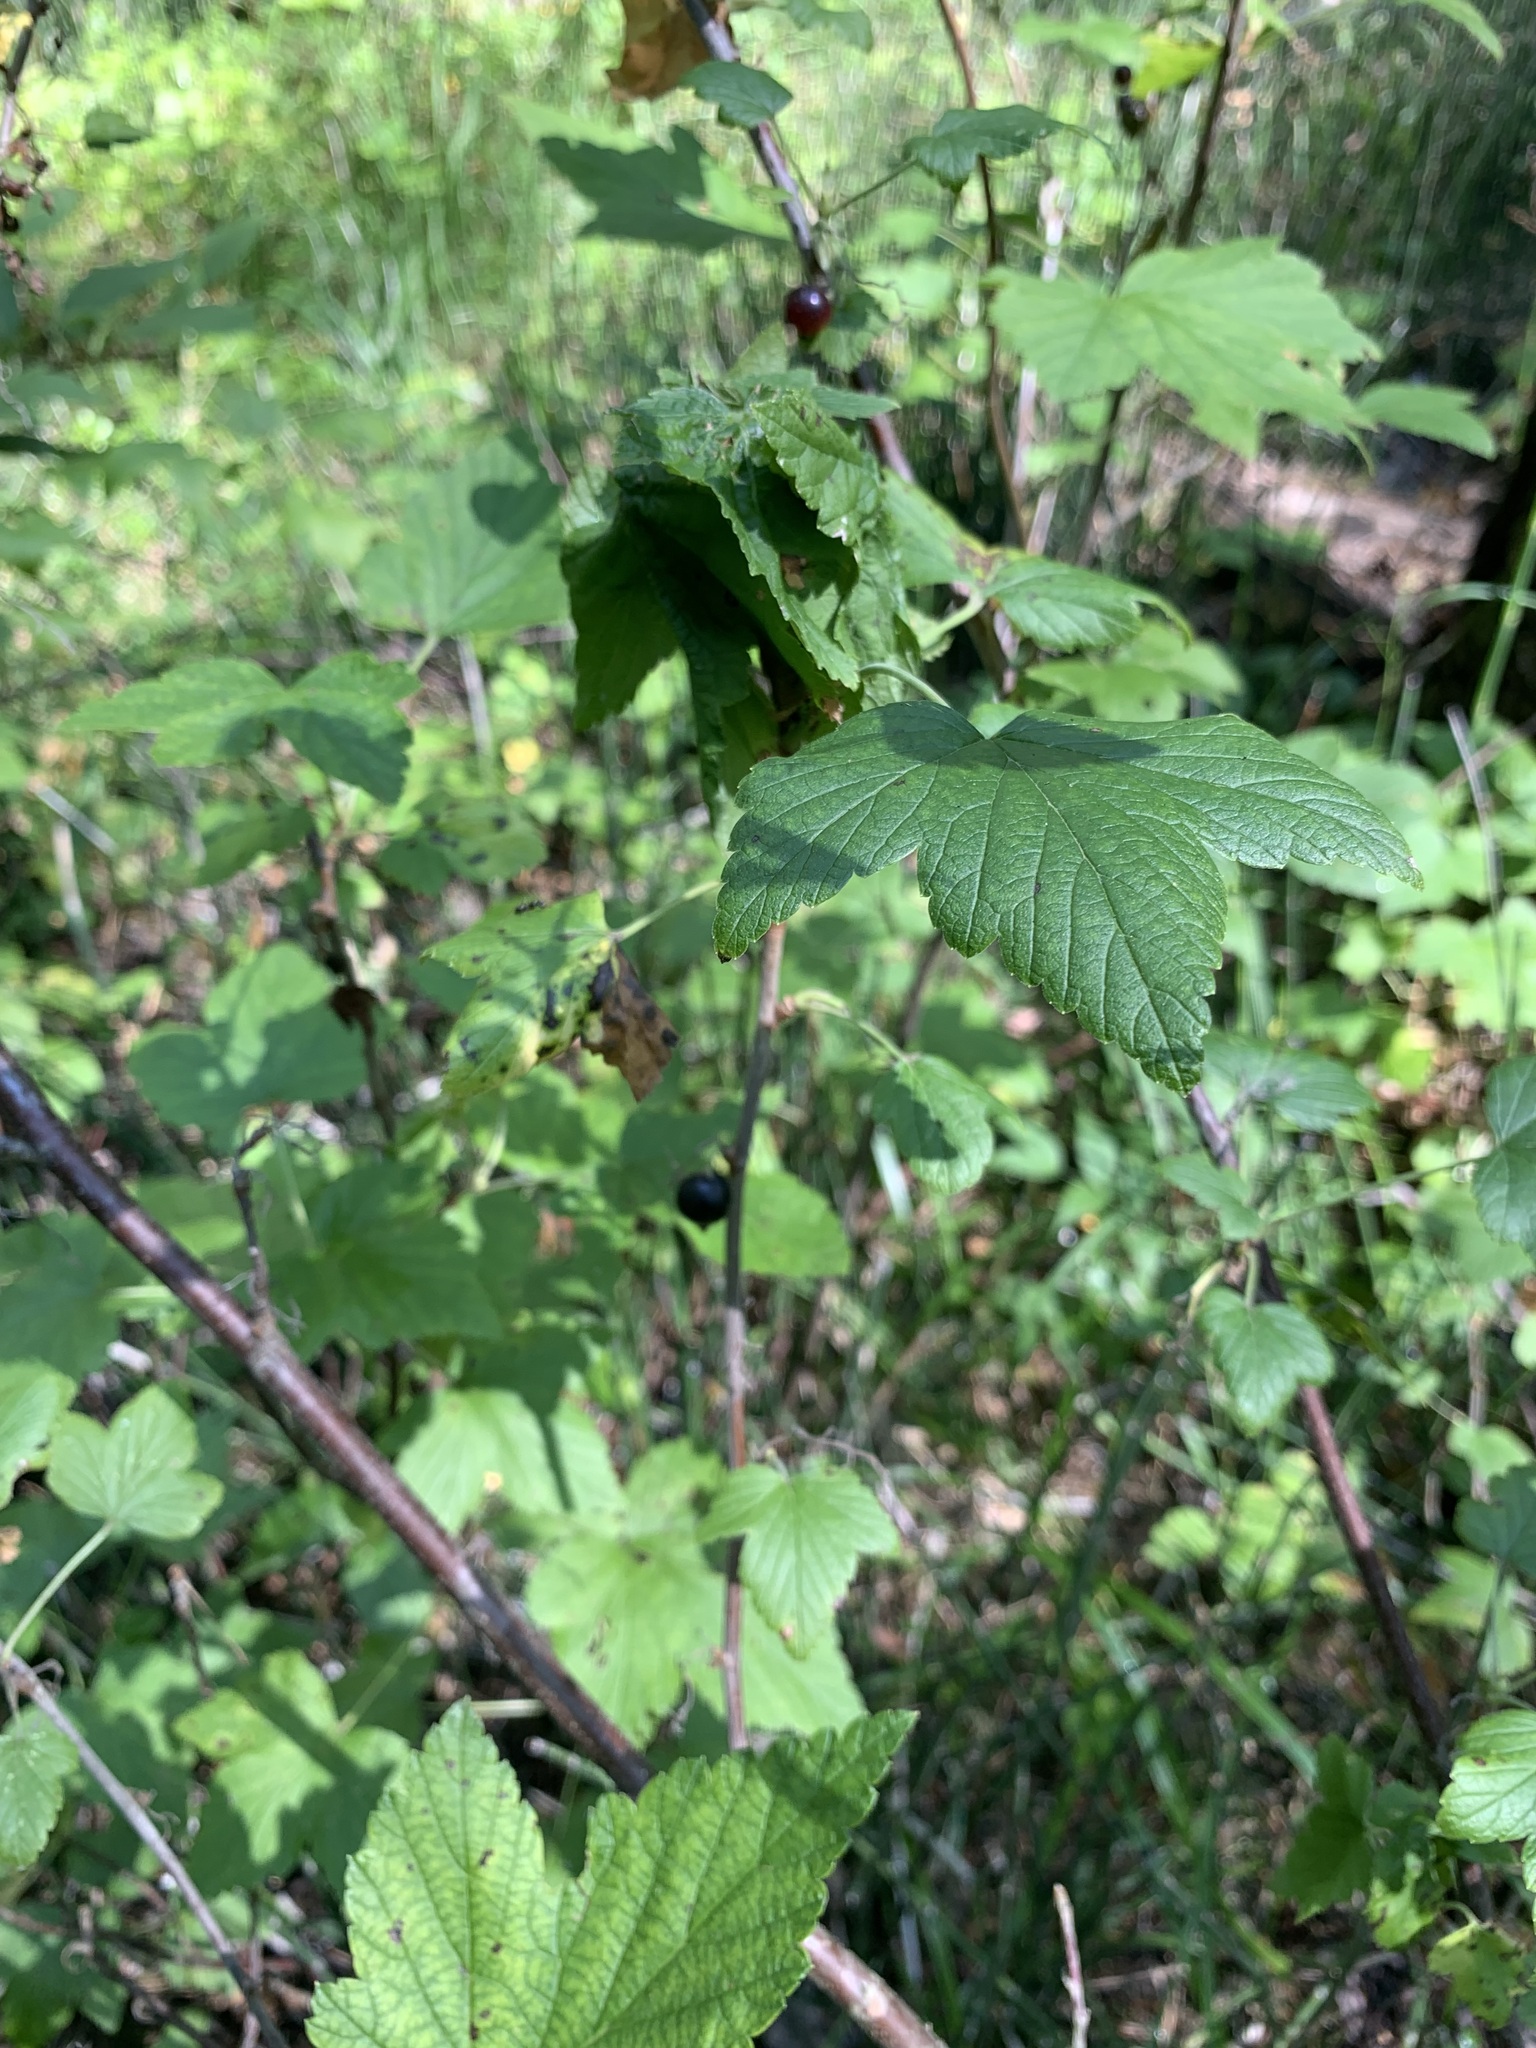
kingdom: Plantae
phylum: Tracheophyta
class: Magnoliopsida
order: Saxifragales
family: Grossulariaceae
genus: Ribes
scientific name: Ribes nigrum
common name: Black currant
